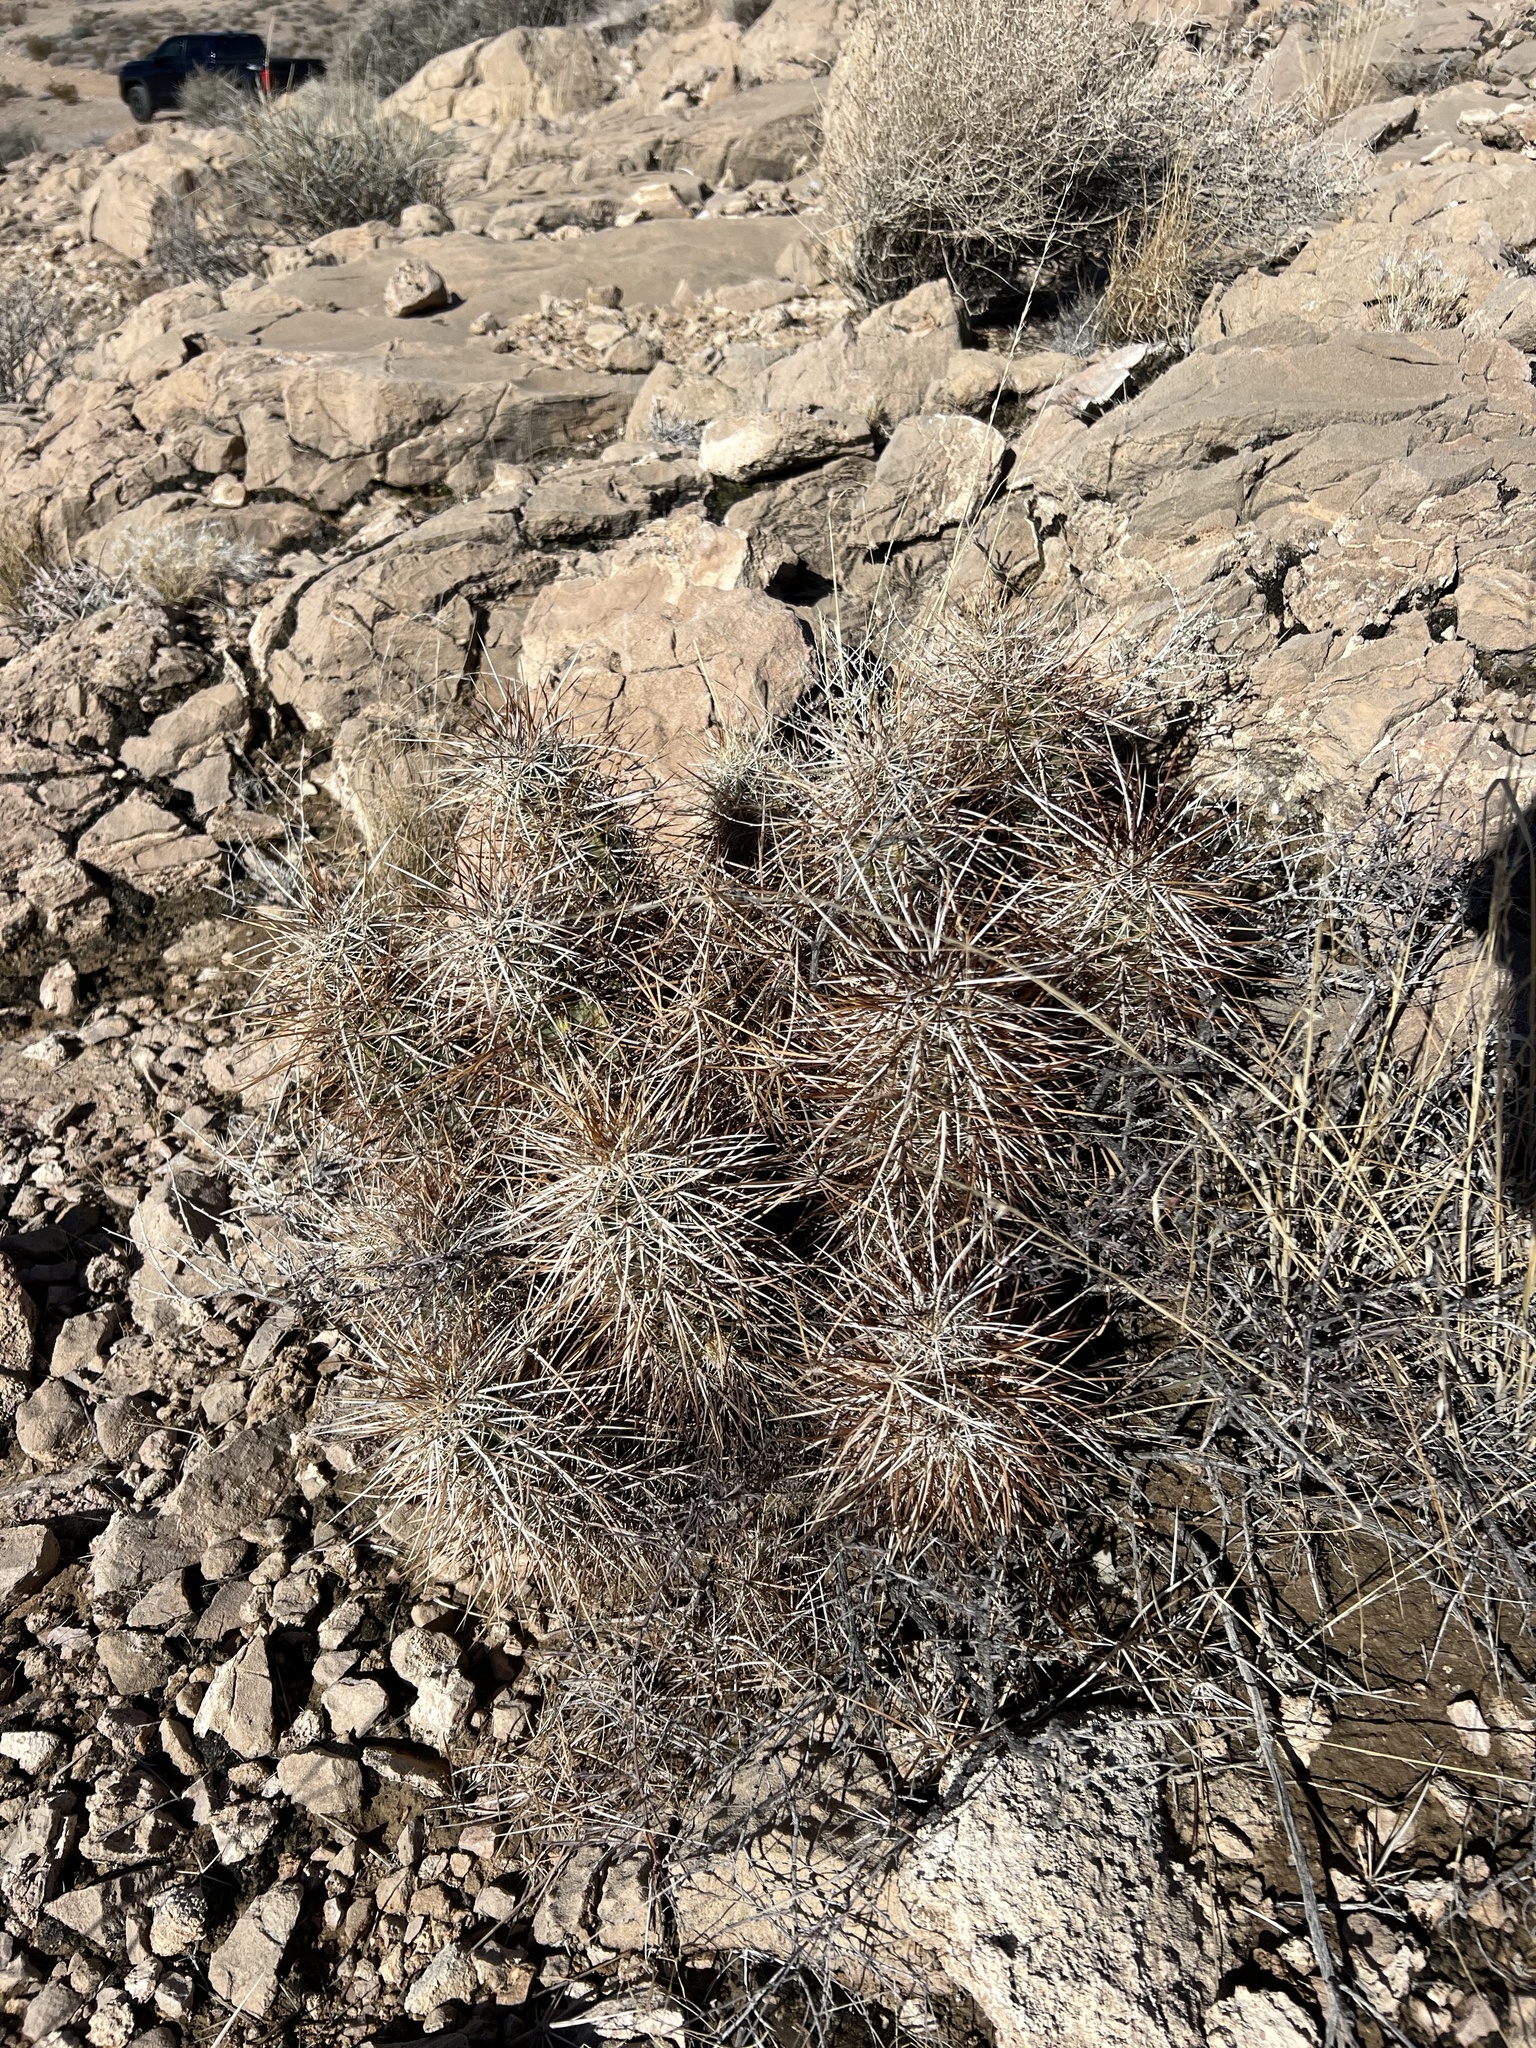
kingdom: Plantae
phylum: Tracheophyta
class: Magnoliopsida
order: Caryophyllales
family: Cactaceae
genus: Echinocereus
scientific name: Echinocereus engelmannii
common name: Engelmann's hedgehog cactus
